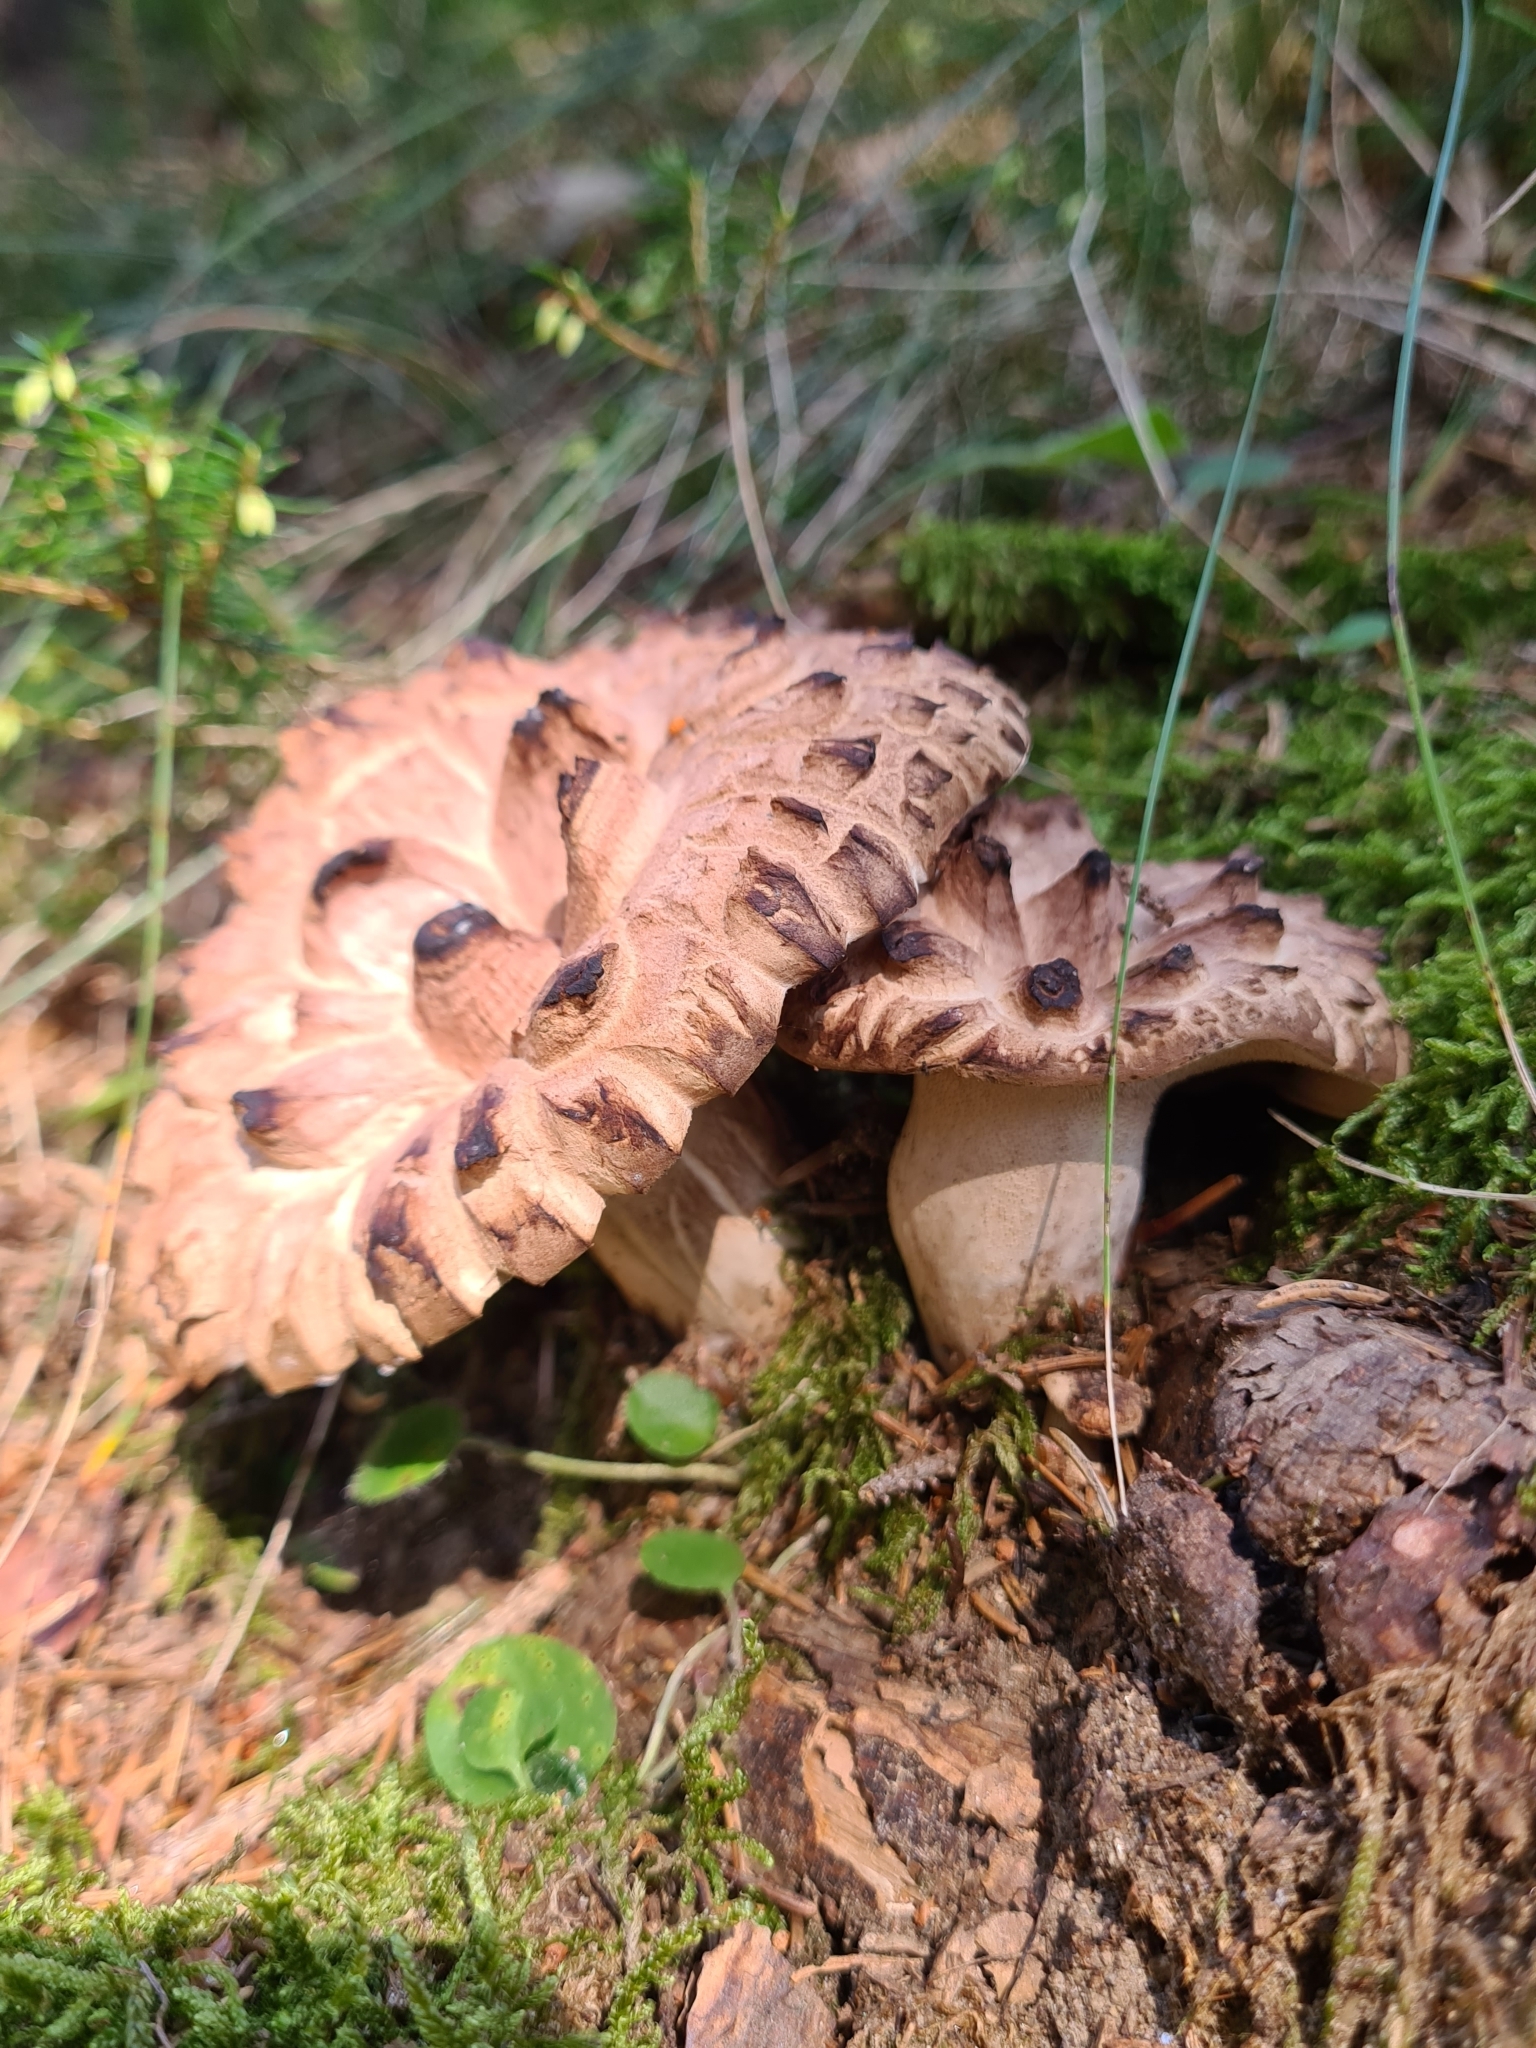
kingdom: Fungi
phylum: Basidiomycota
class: Agaricomycetes
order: Thelephorales
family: Bankeraceae
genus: Sarcodon
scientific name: Sarcodon imbricatus
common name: Shingled hedgehog
